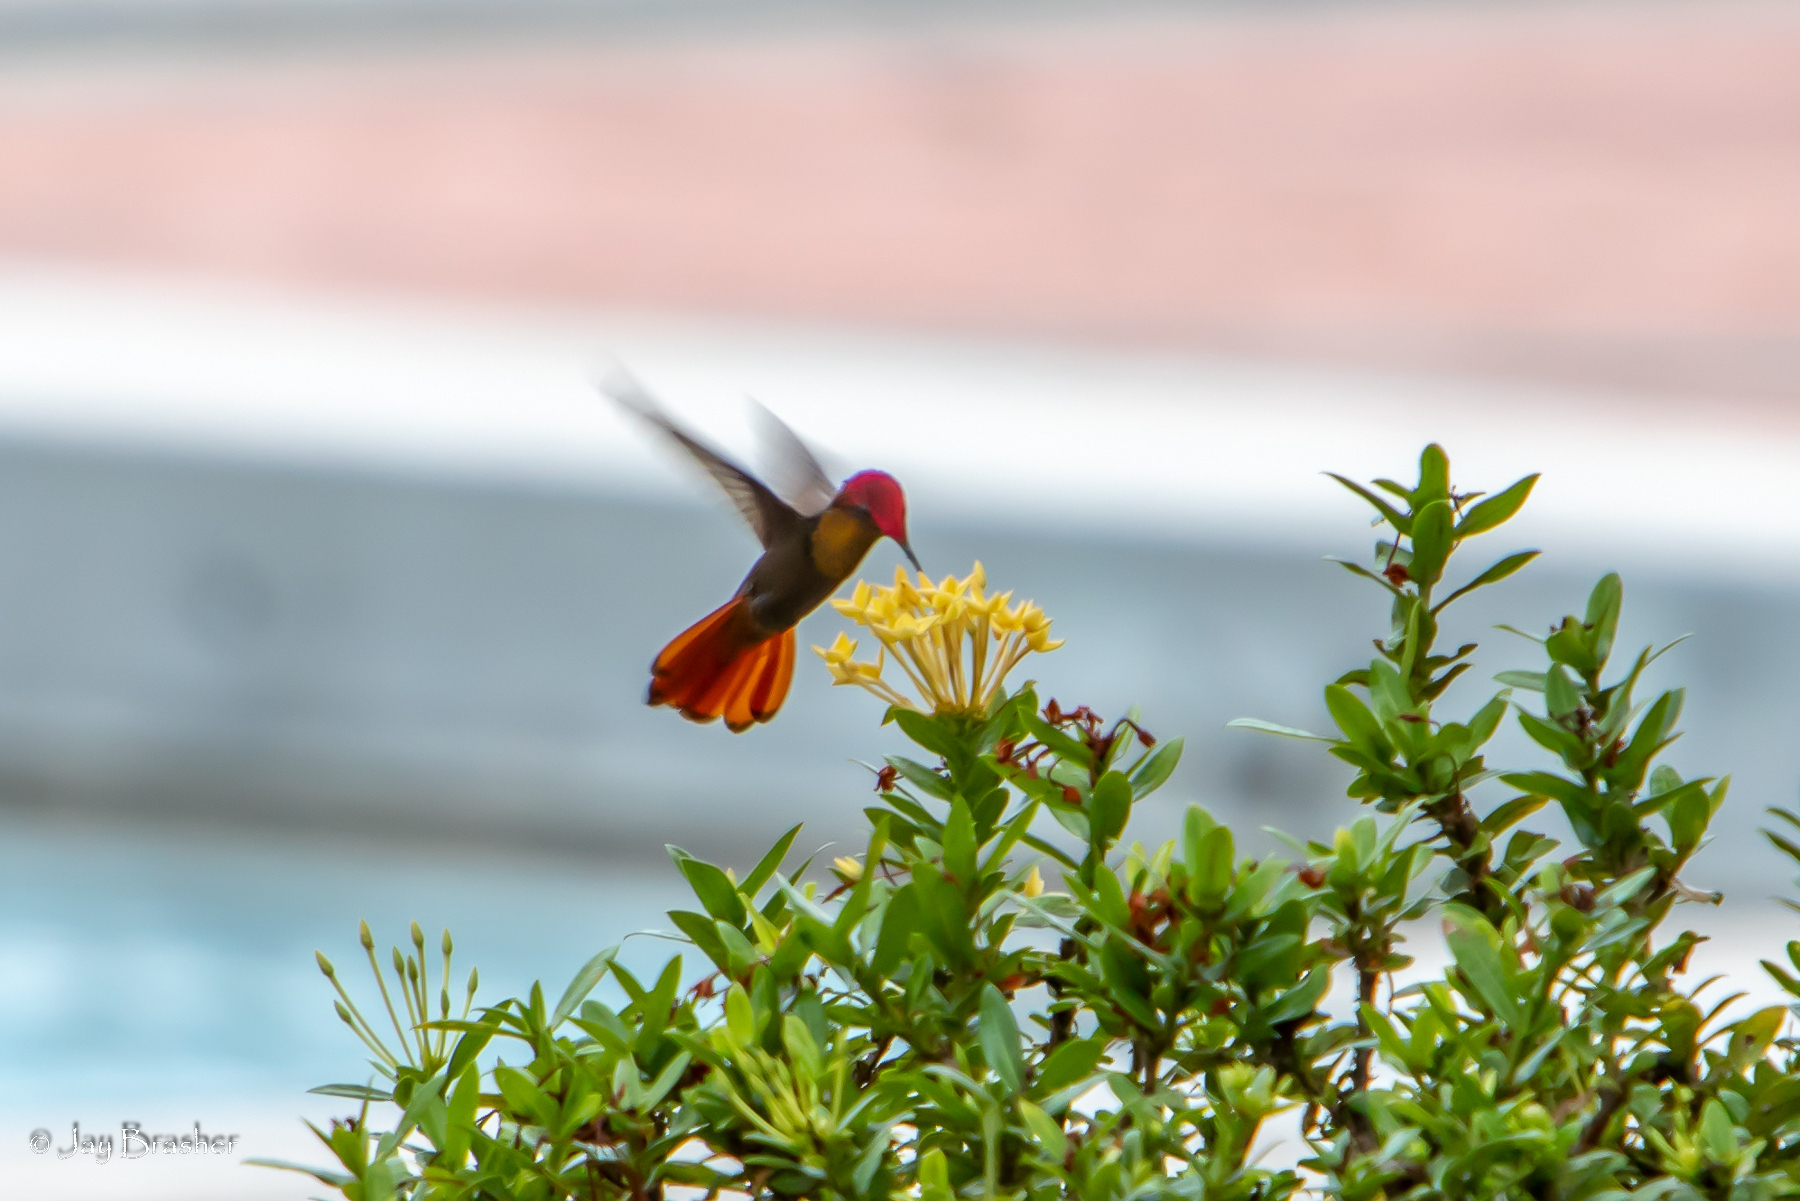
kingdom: Animalia
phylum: Chordata
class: Aves
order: Apodiformes
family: Trochilidae
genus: Chrysolampis
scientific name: Chrysolampis mosquitus
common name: Ruby-topaz hummingbird
